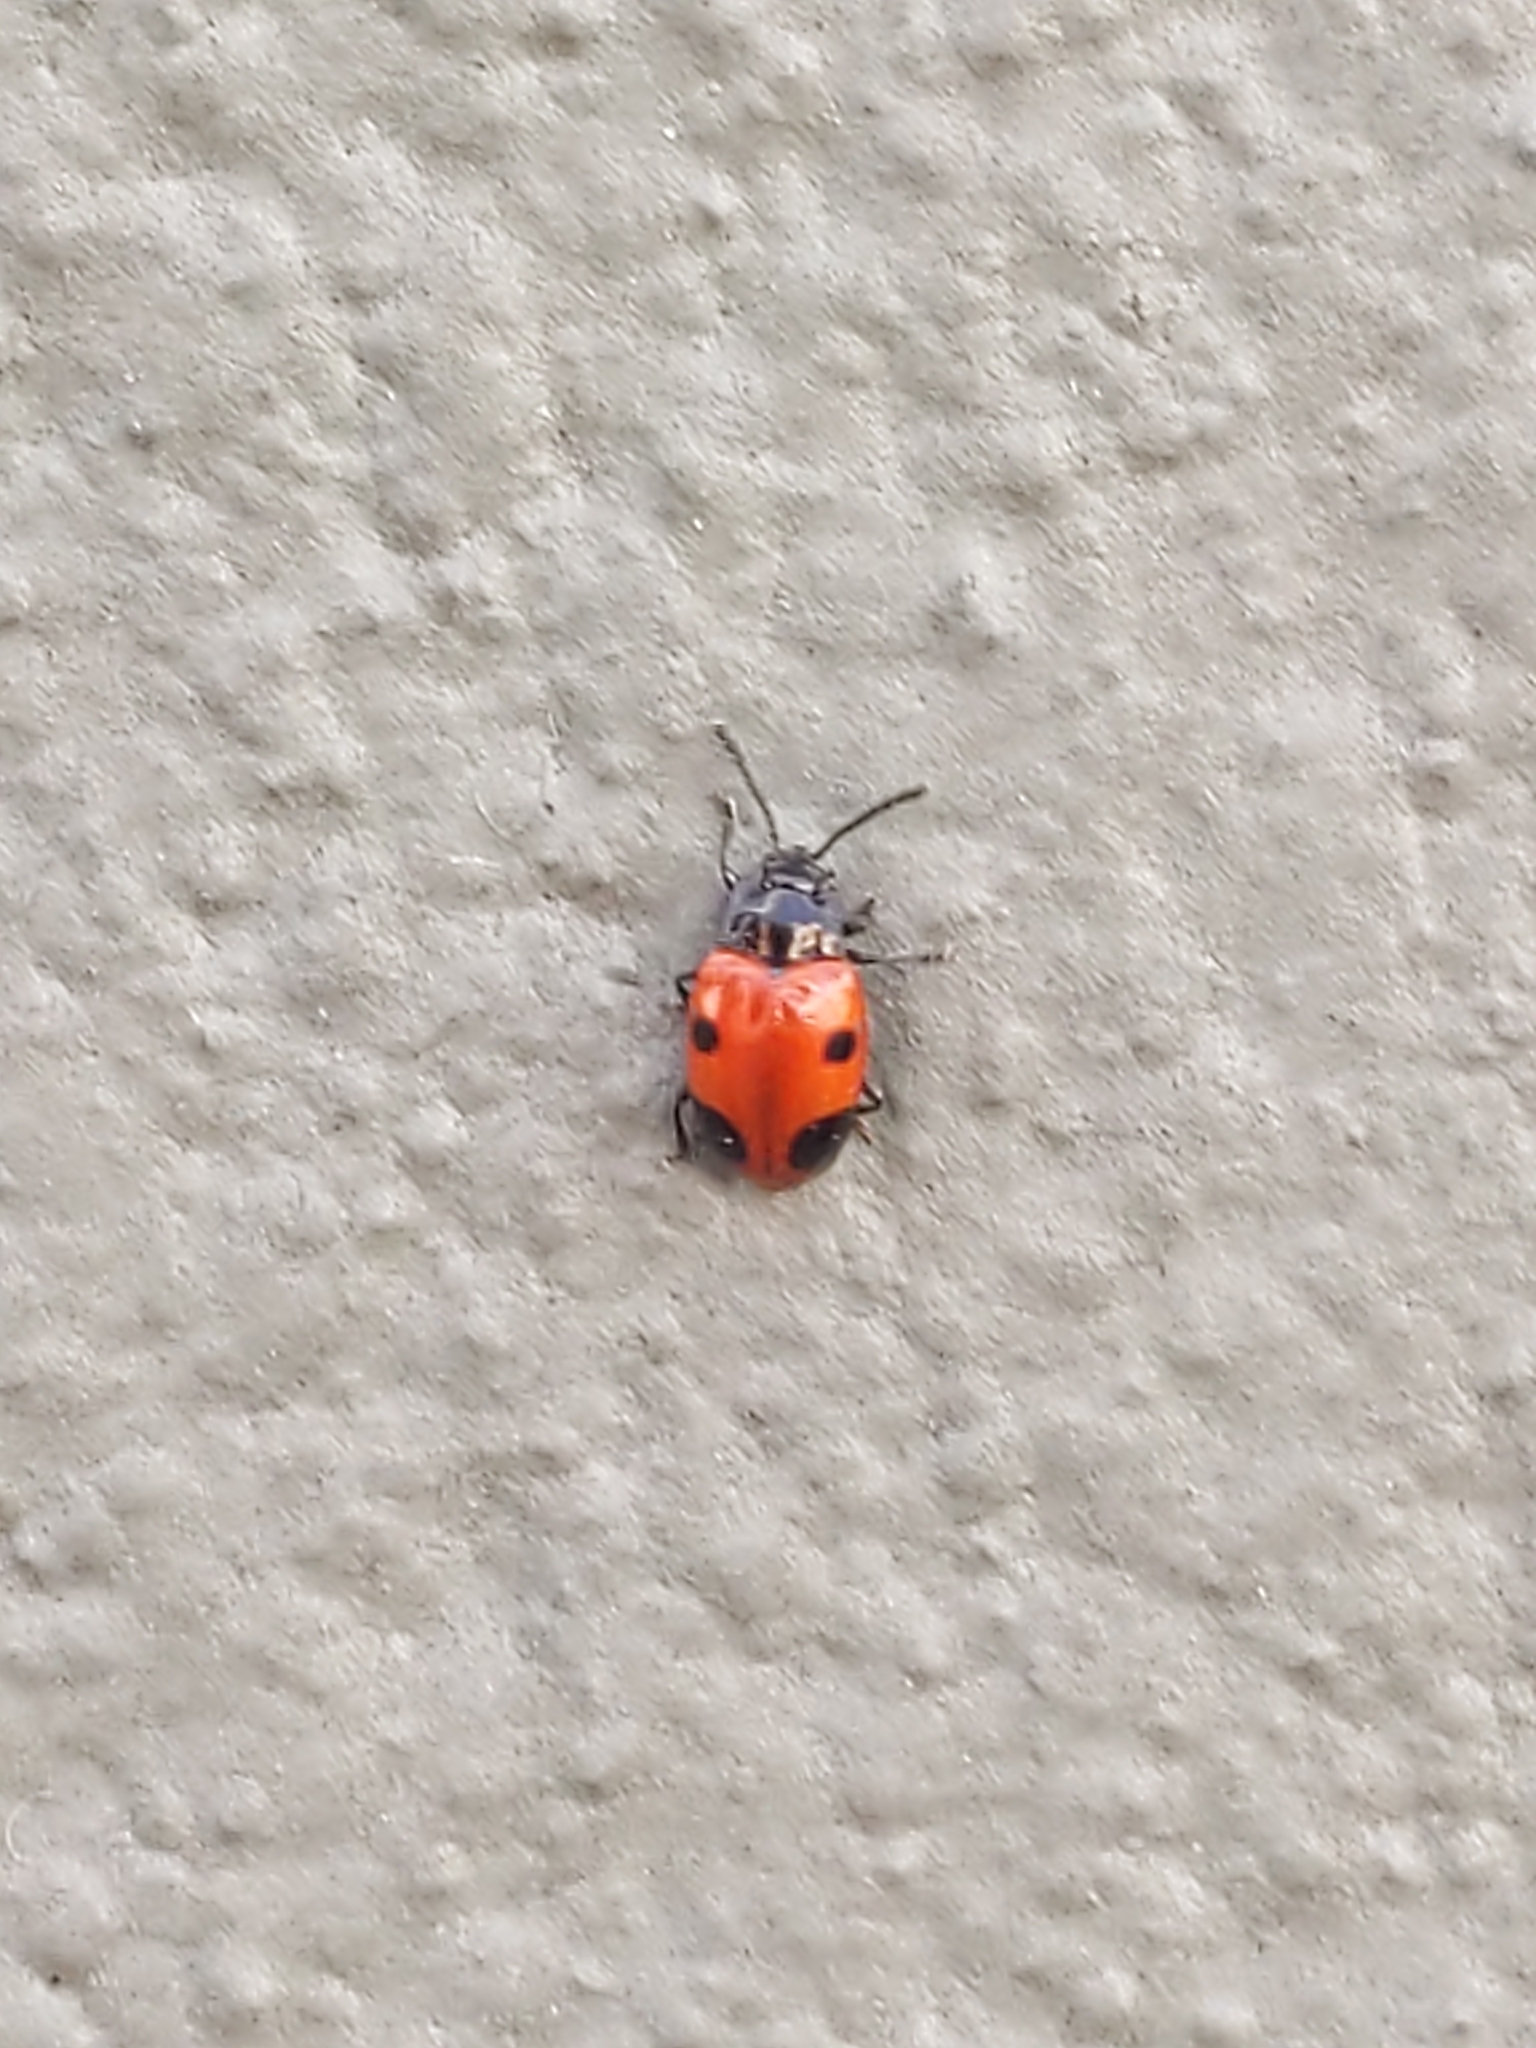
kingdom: Animalia
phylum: Arthropoda
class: Insecta
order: Coleoptera
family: Endomychidae
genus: Endomychus
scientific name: Endomychus biguttatus
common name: Handsome fungus beetle
